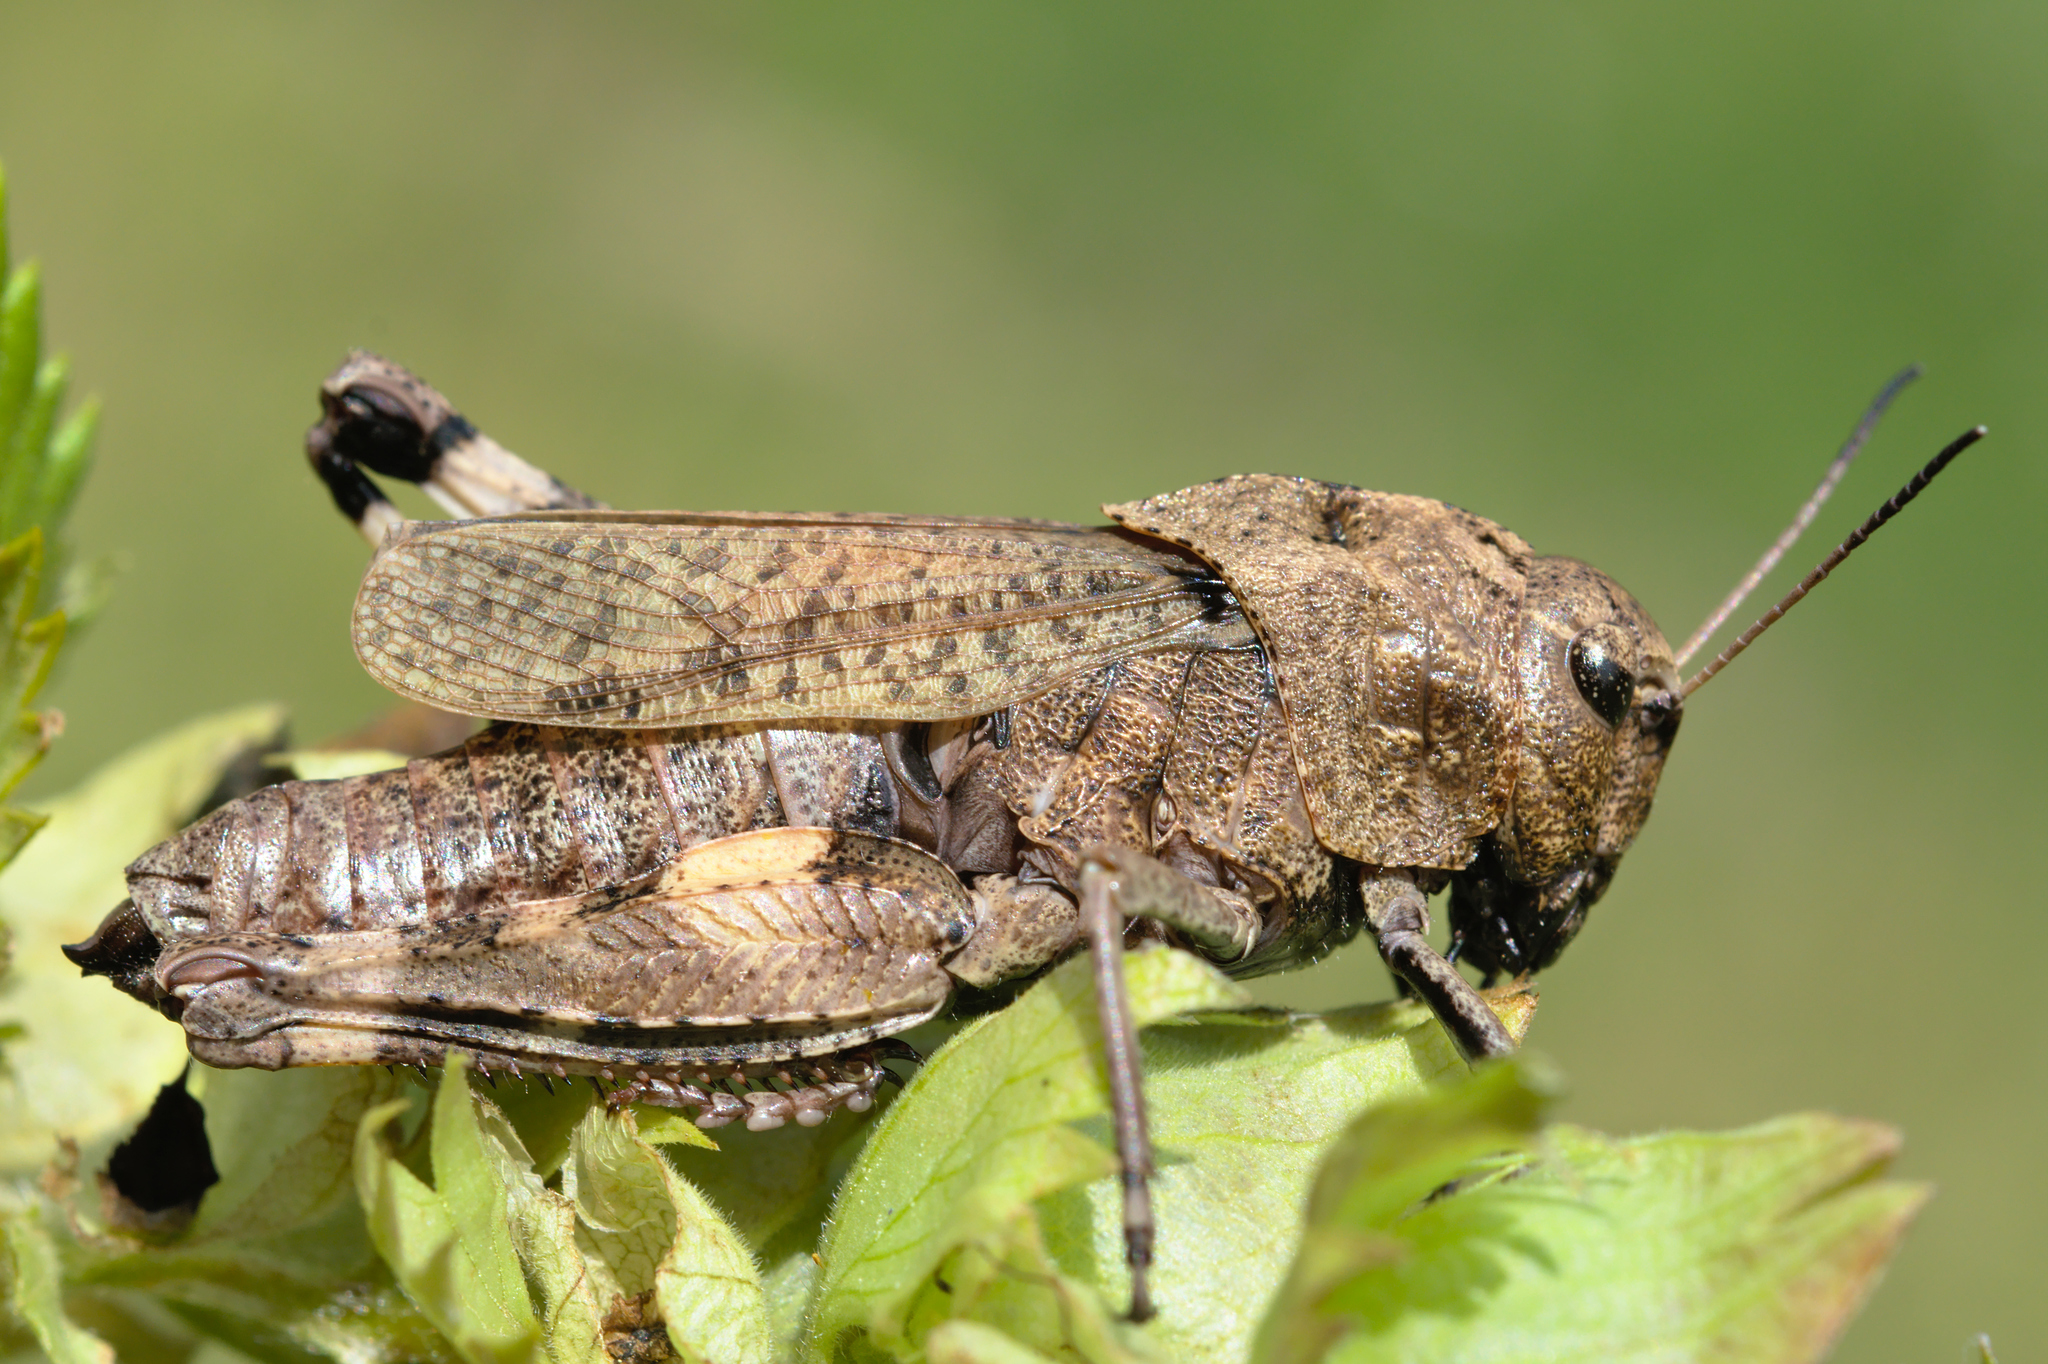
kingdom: Animalia
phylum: Arthropoda
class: Insecta
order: Orthoptera
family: Acrididae
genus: Psophus
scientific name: Psophus stridulus
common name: Rattle grasshopper
